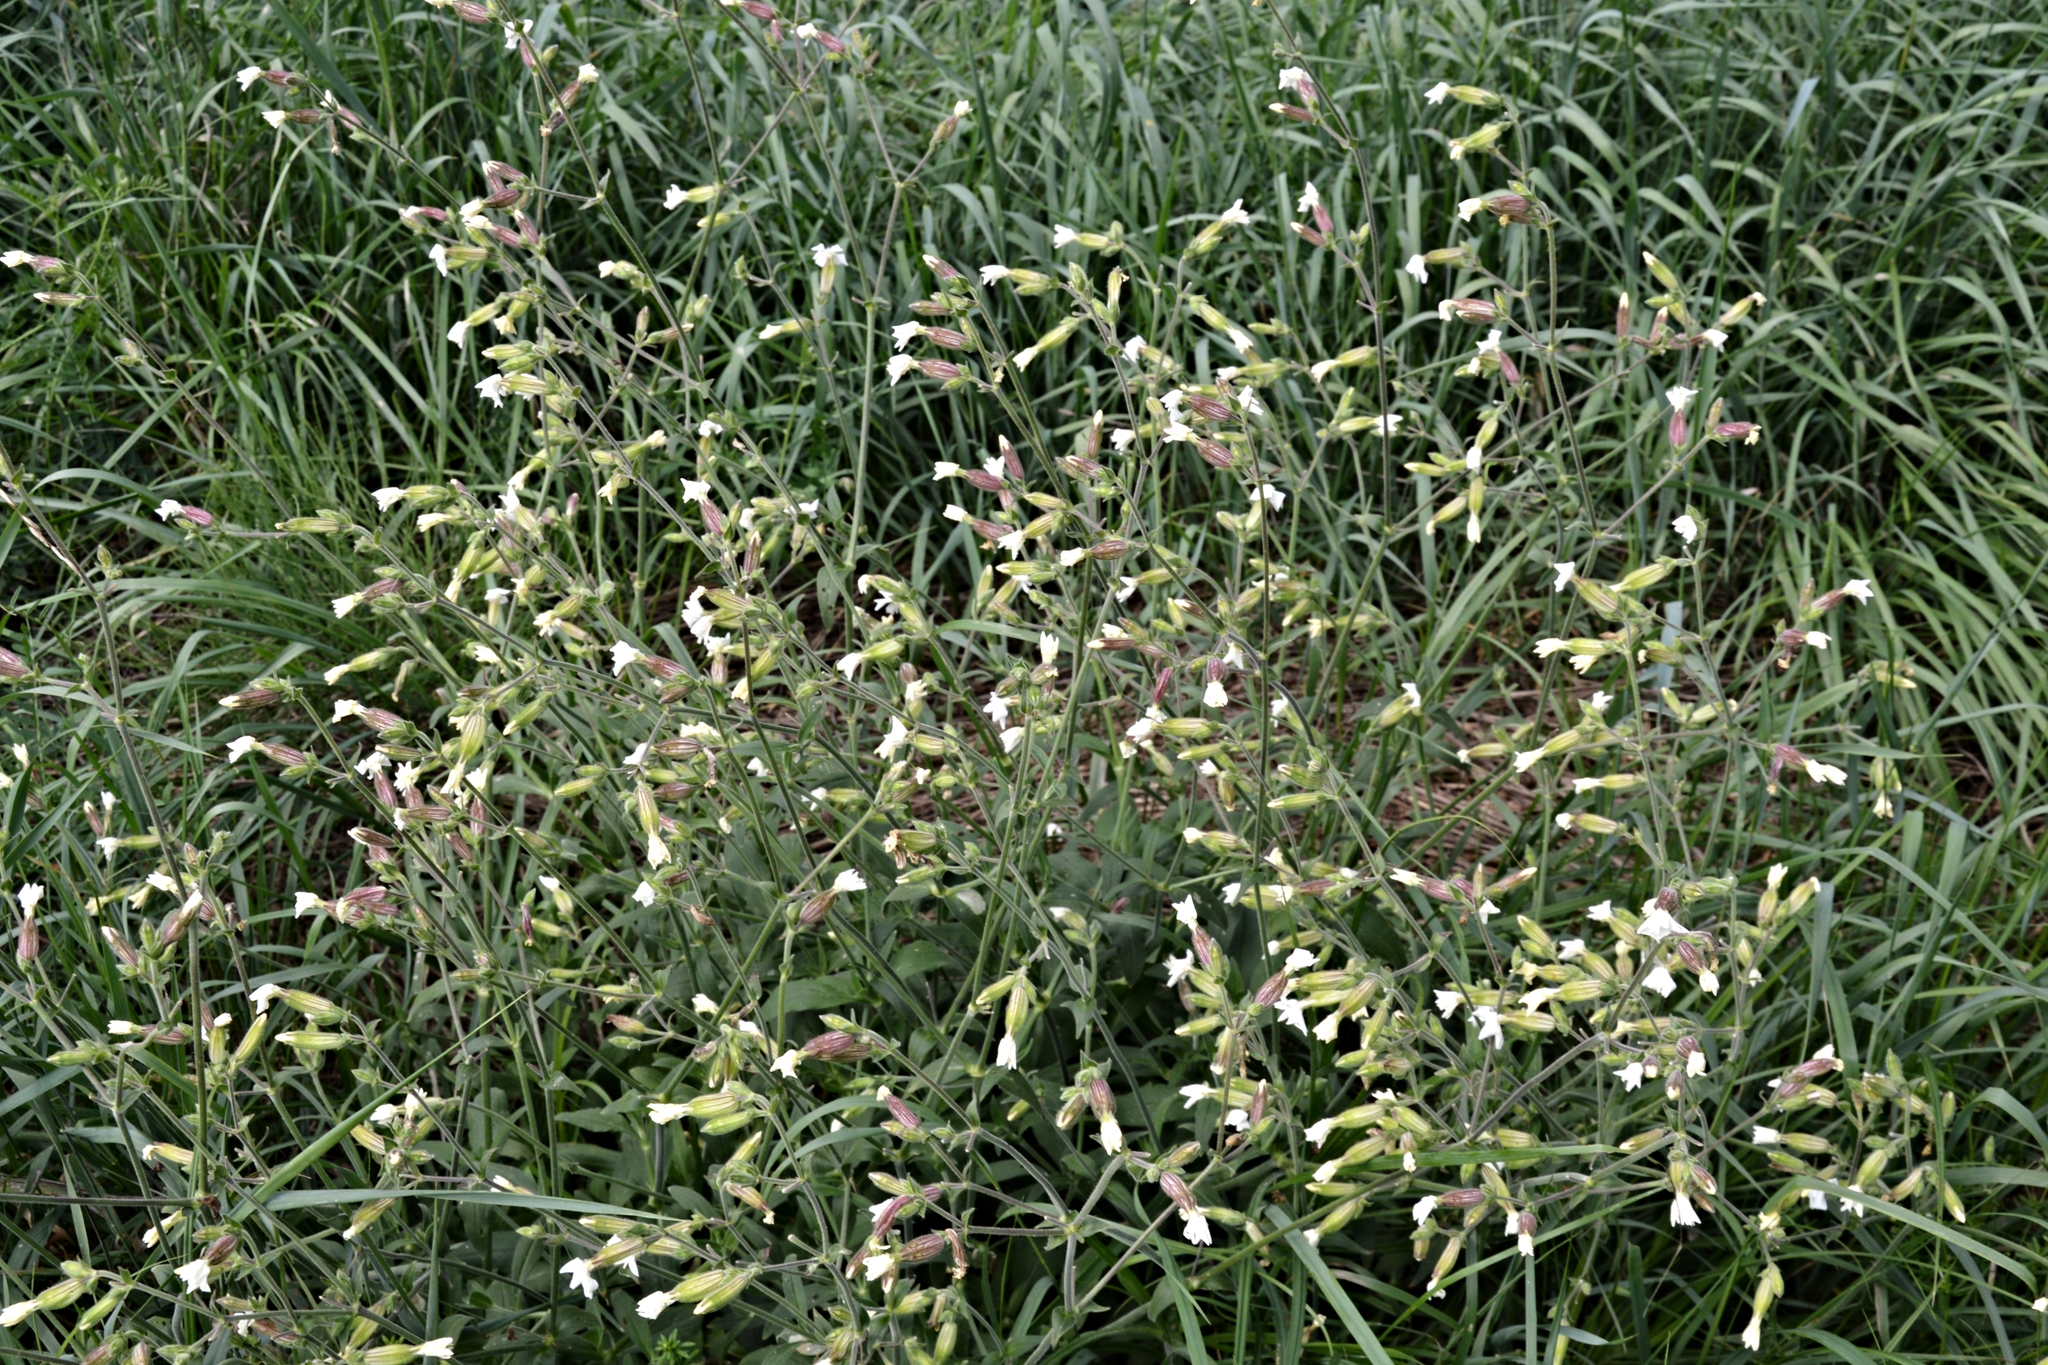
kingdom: Plantae
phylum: Tracheophyta
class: Magnoliopsida
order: Caryophyllales
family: Caryophyllaceae
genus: Silene
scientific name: Silene latifolia
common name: White campion
